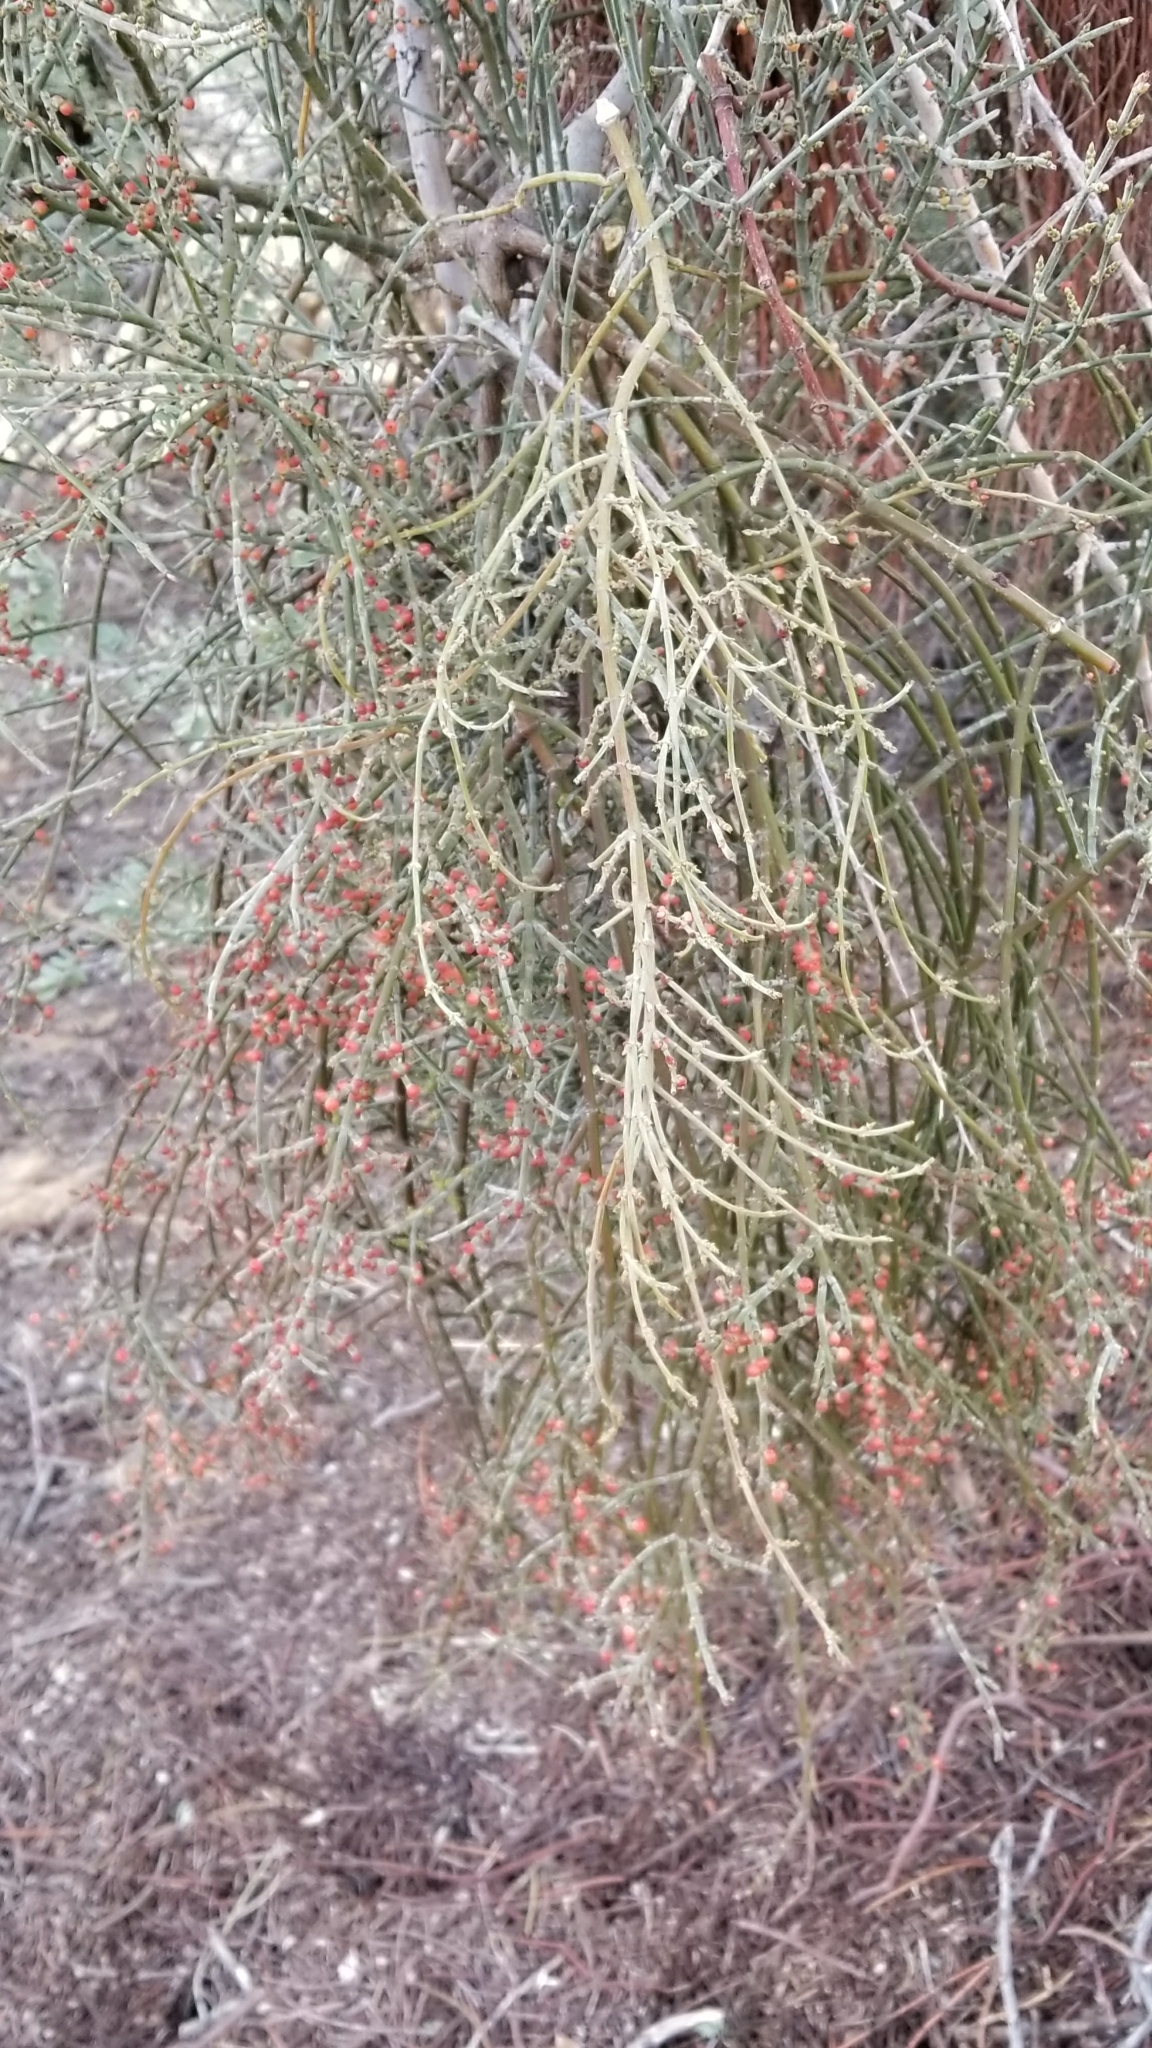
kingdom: Plantae
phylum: Tracheophyta
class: Magnoliopsida
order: Santalales
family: Viscaceae
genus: Phoradendron
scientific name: Phoradendron californicum
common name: Acacia mistletoe
